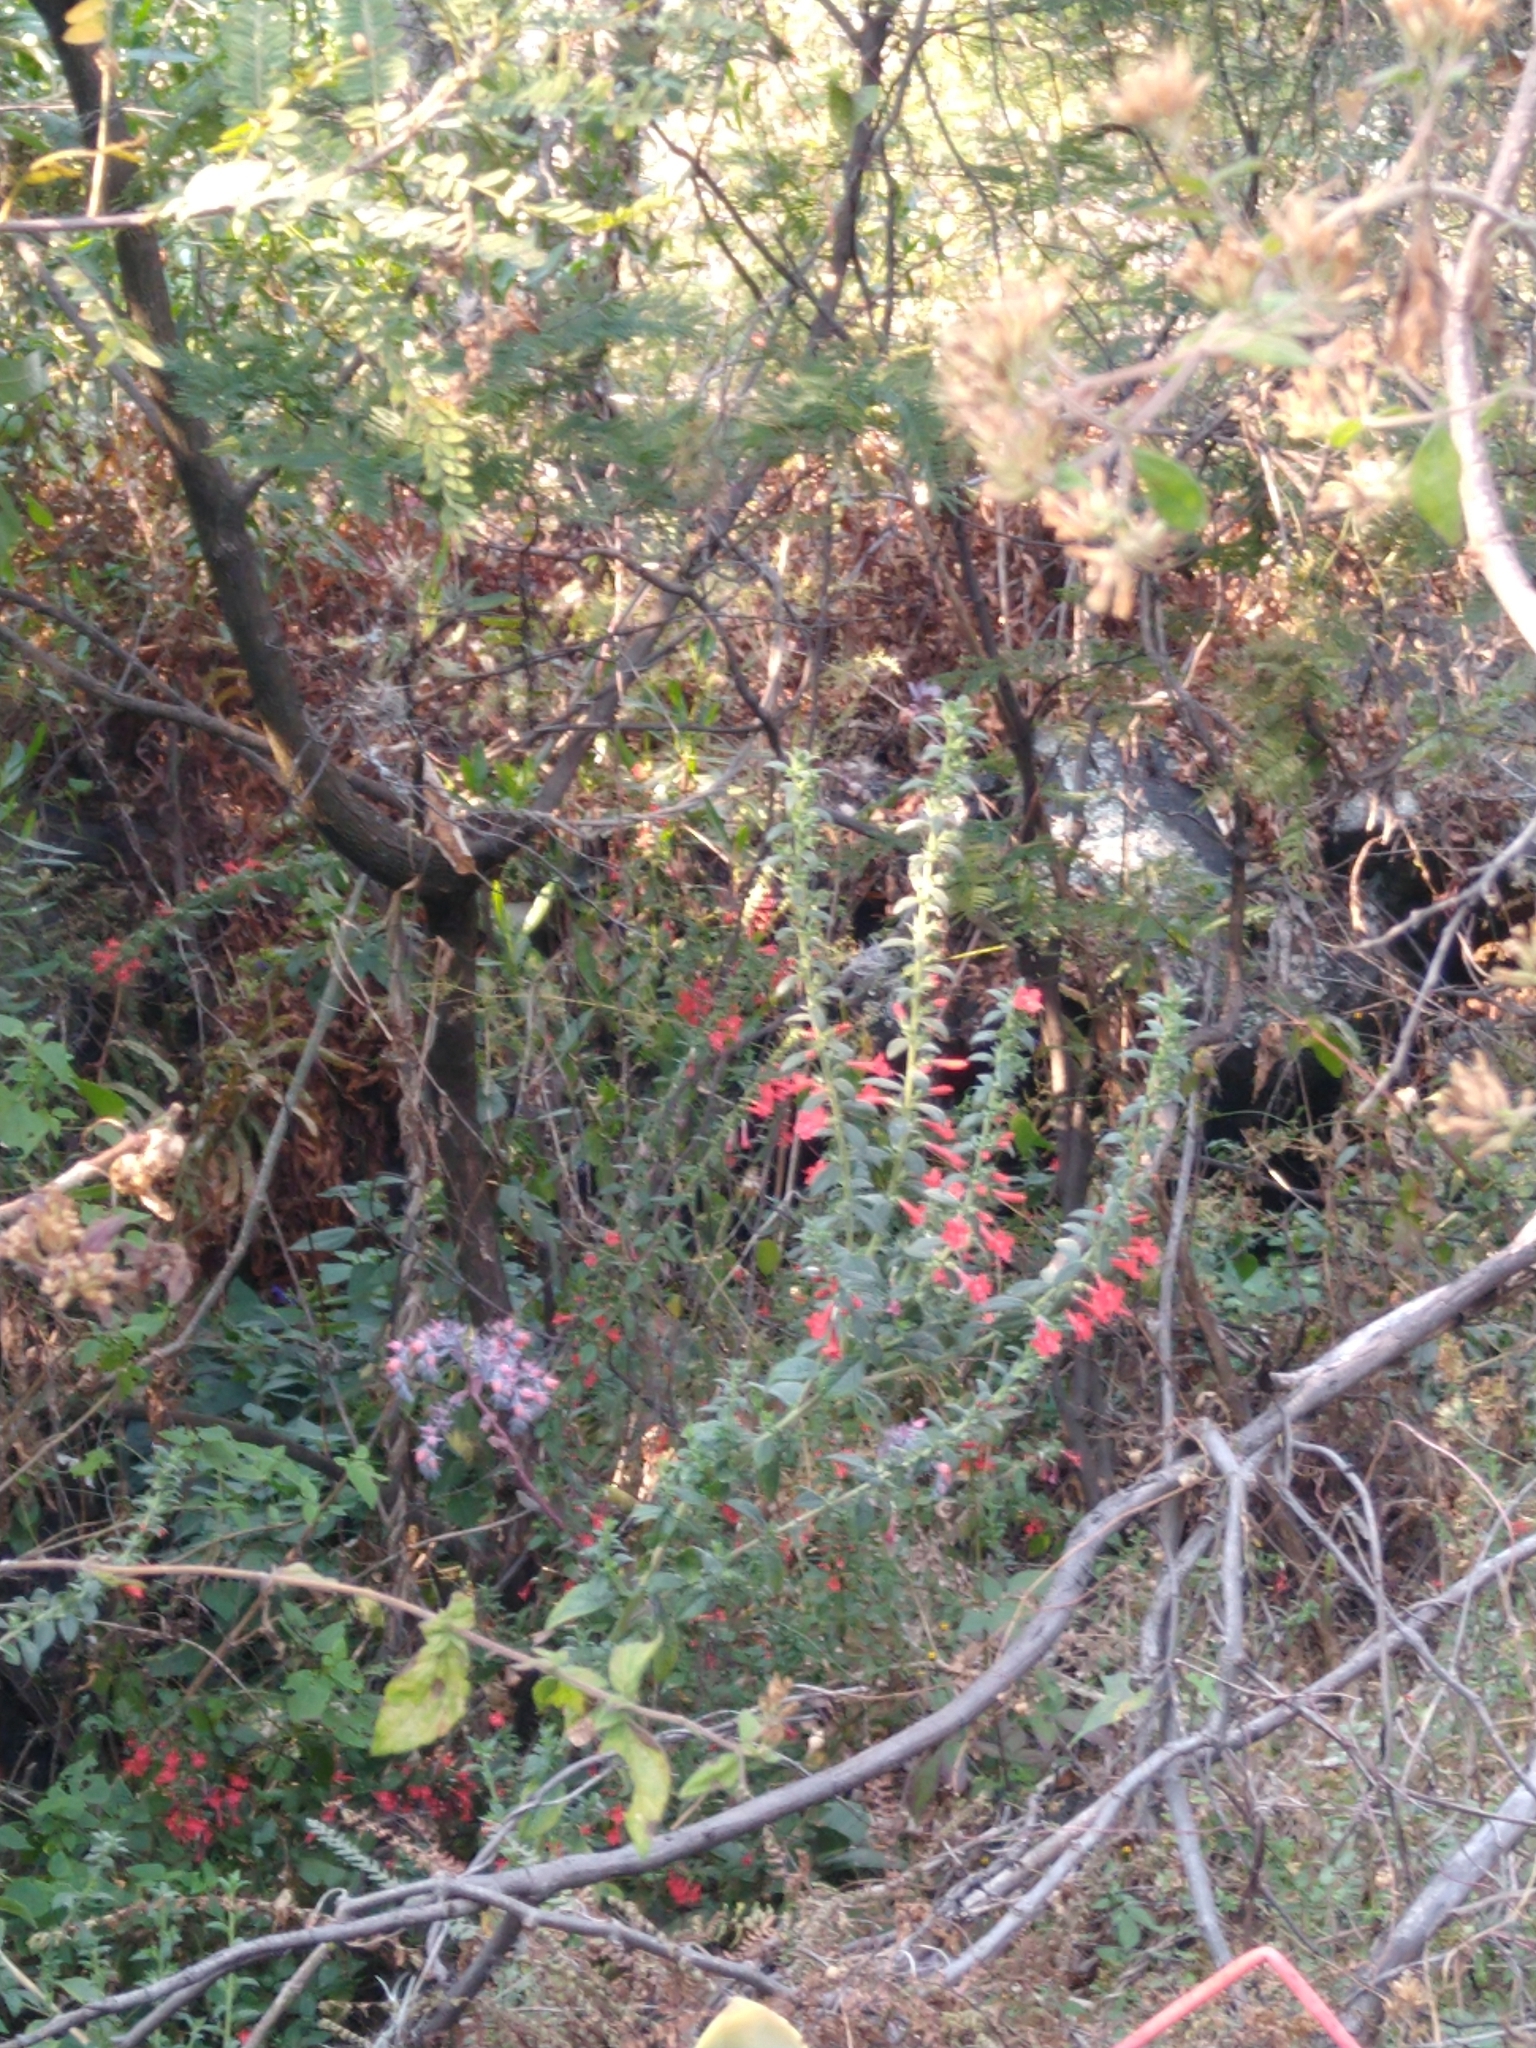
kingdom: Plantae
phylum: Tracheophyta
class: Magnoliopsida
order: Ericales
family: Polemoniaceae
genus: Loeselia
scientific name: Loeselia mexicana
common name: Mexican false calico
